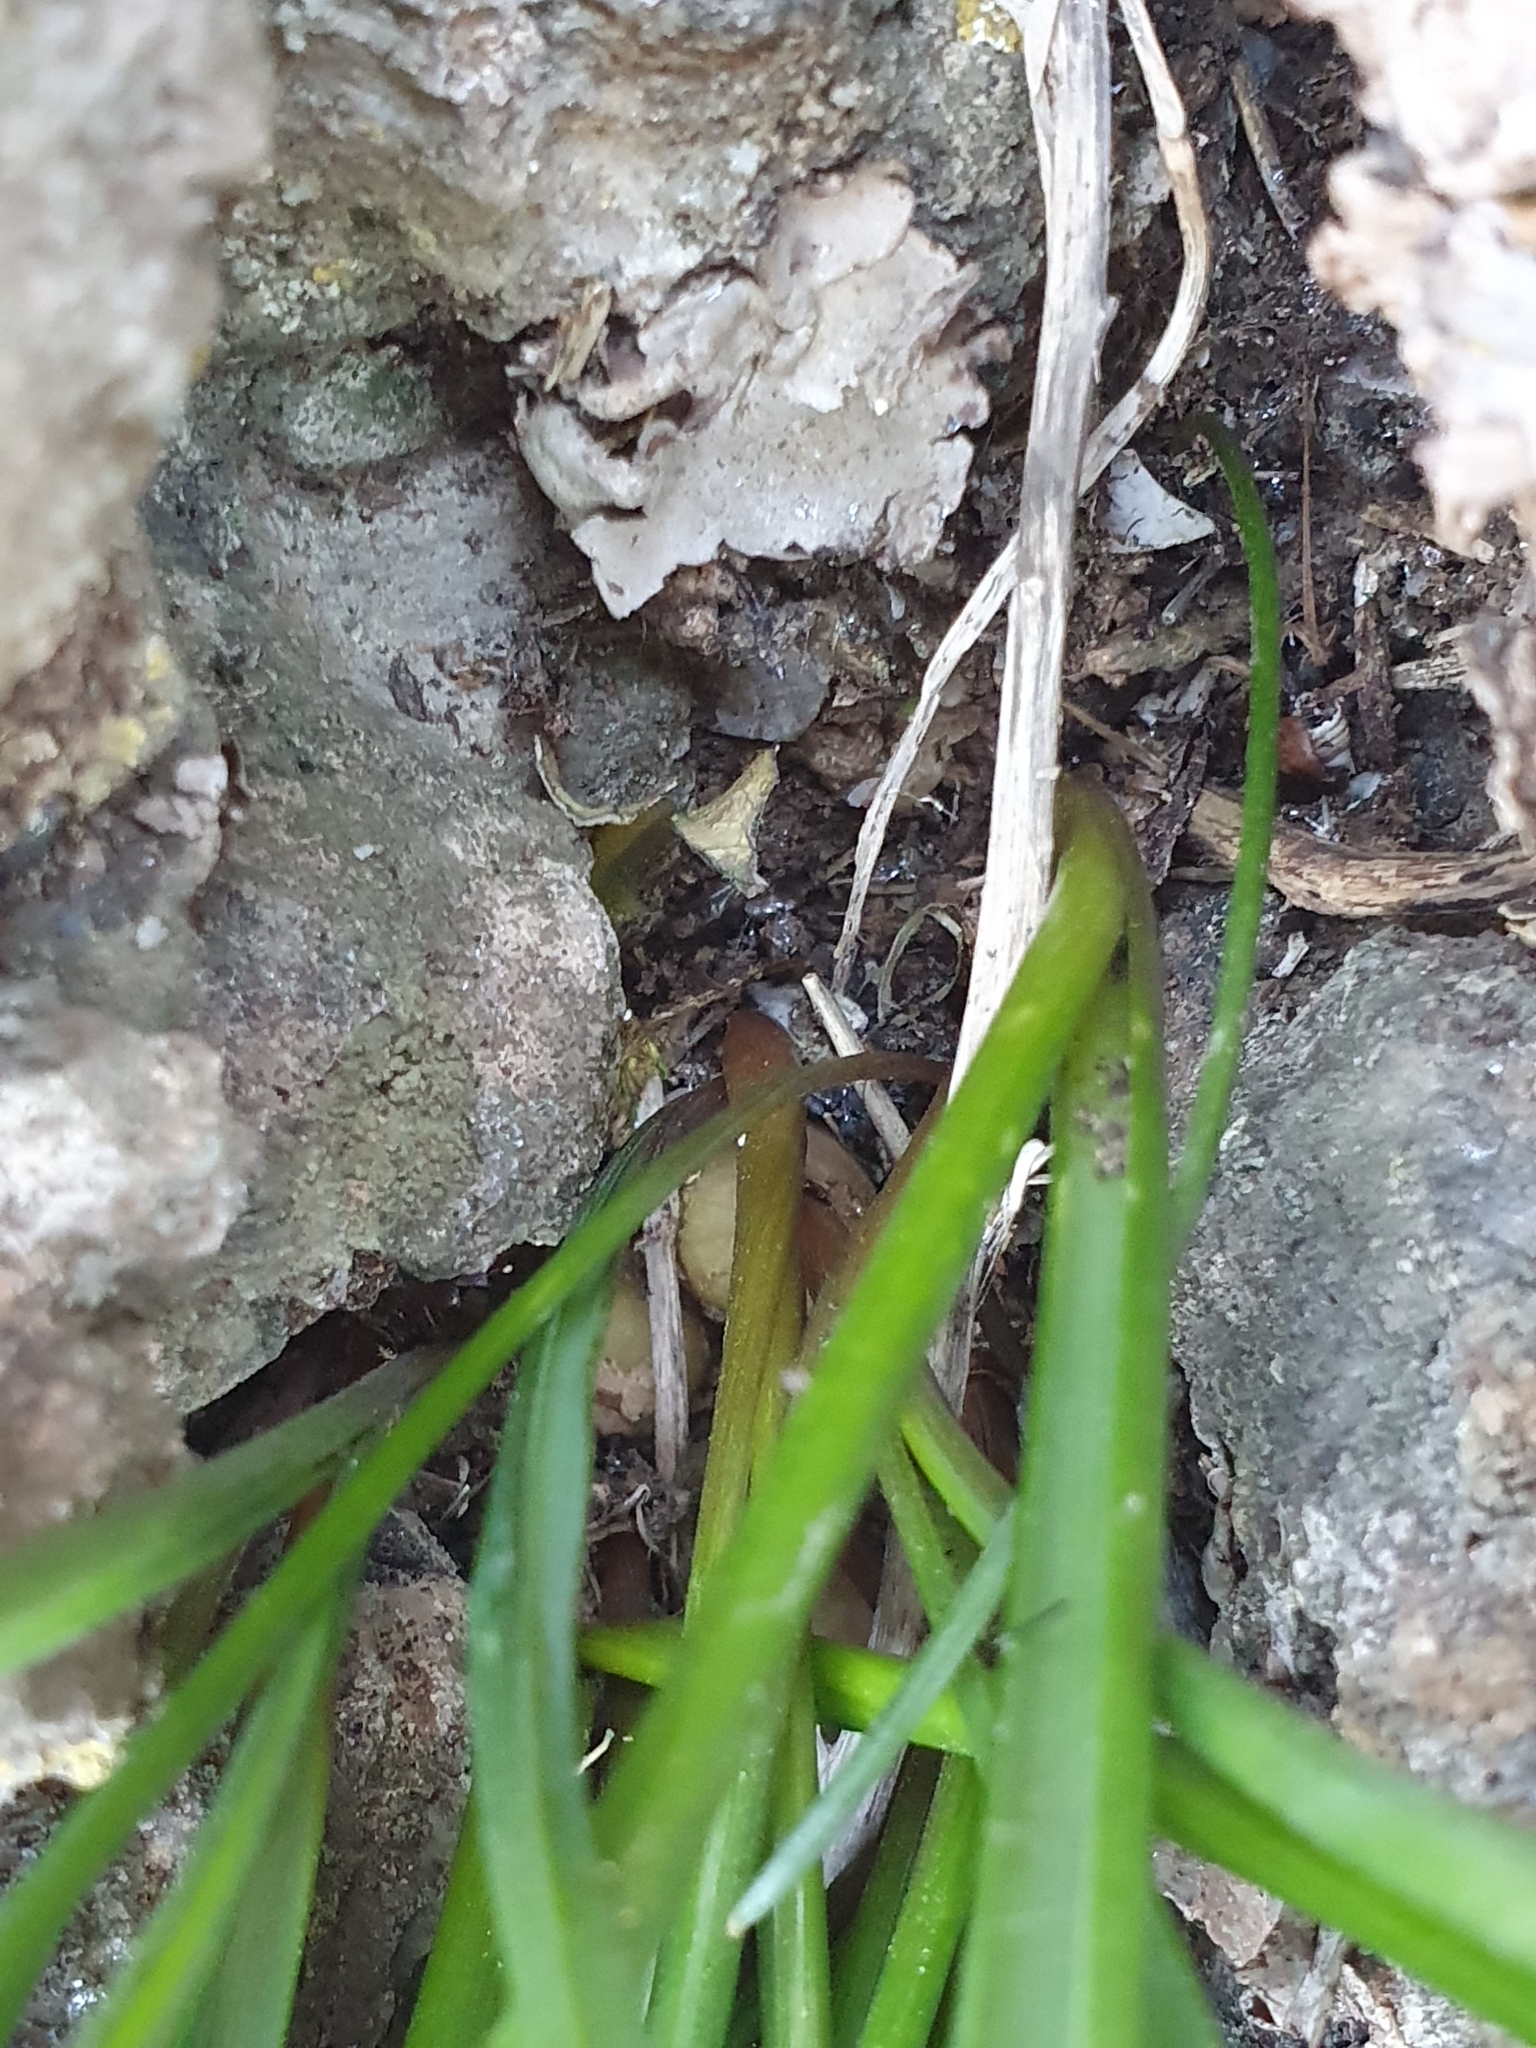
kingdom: Plantae
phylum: Tracheophyta
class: Liliopsida
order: Asparagales
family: Asparagaceae
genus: Muscari
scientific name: Muscari comosum
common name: Tassel hyacinth
